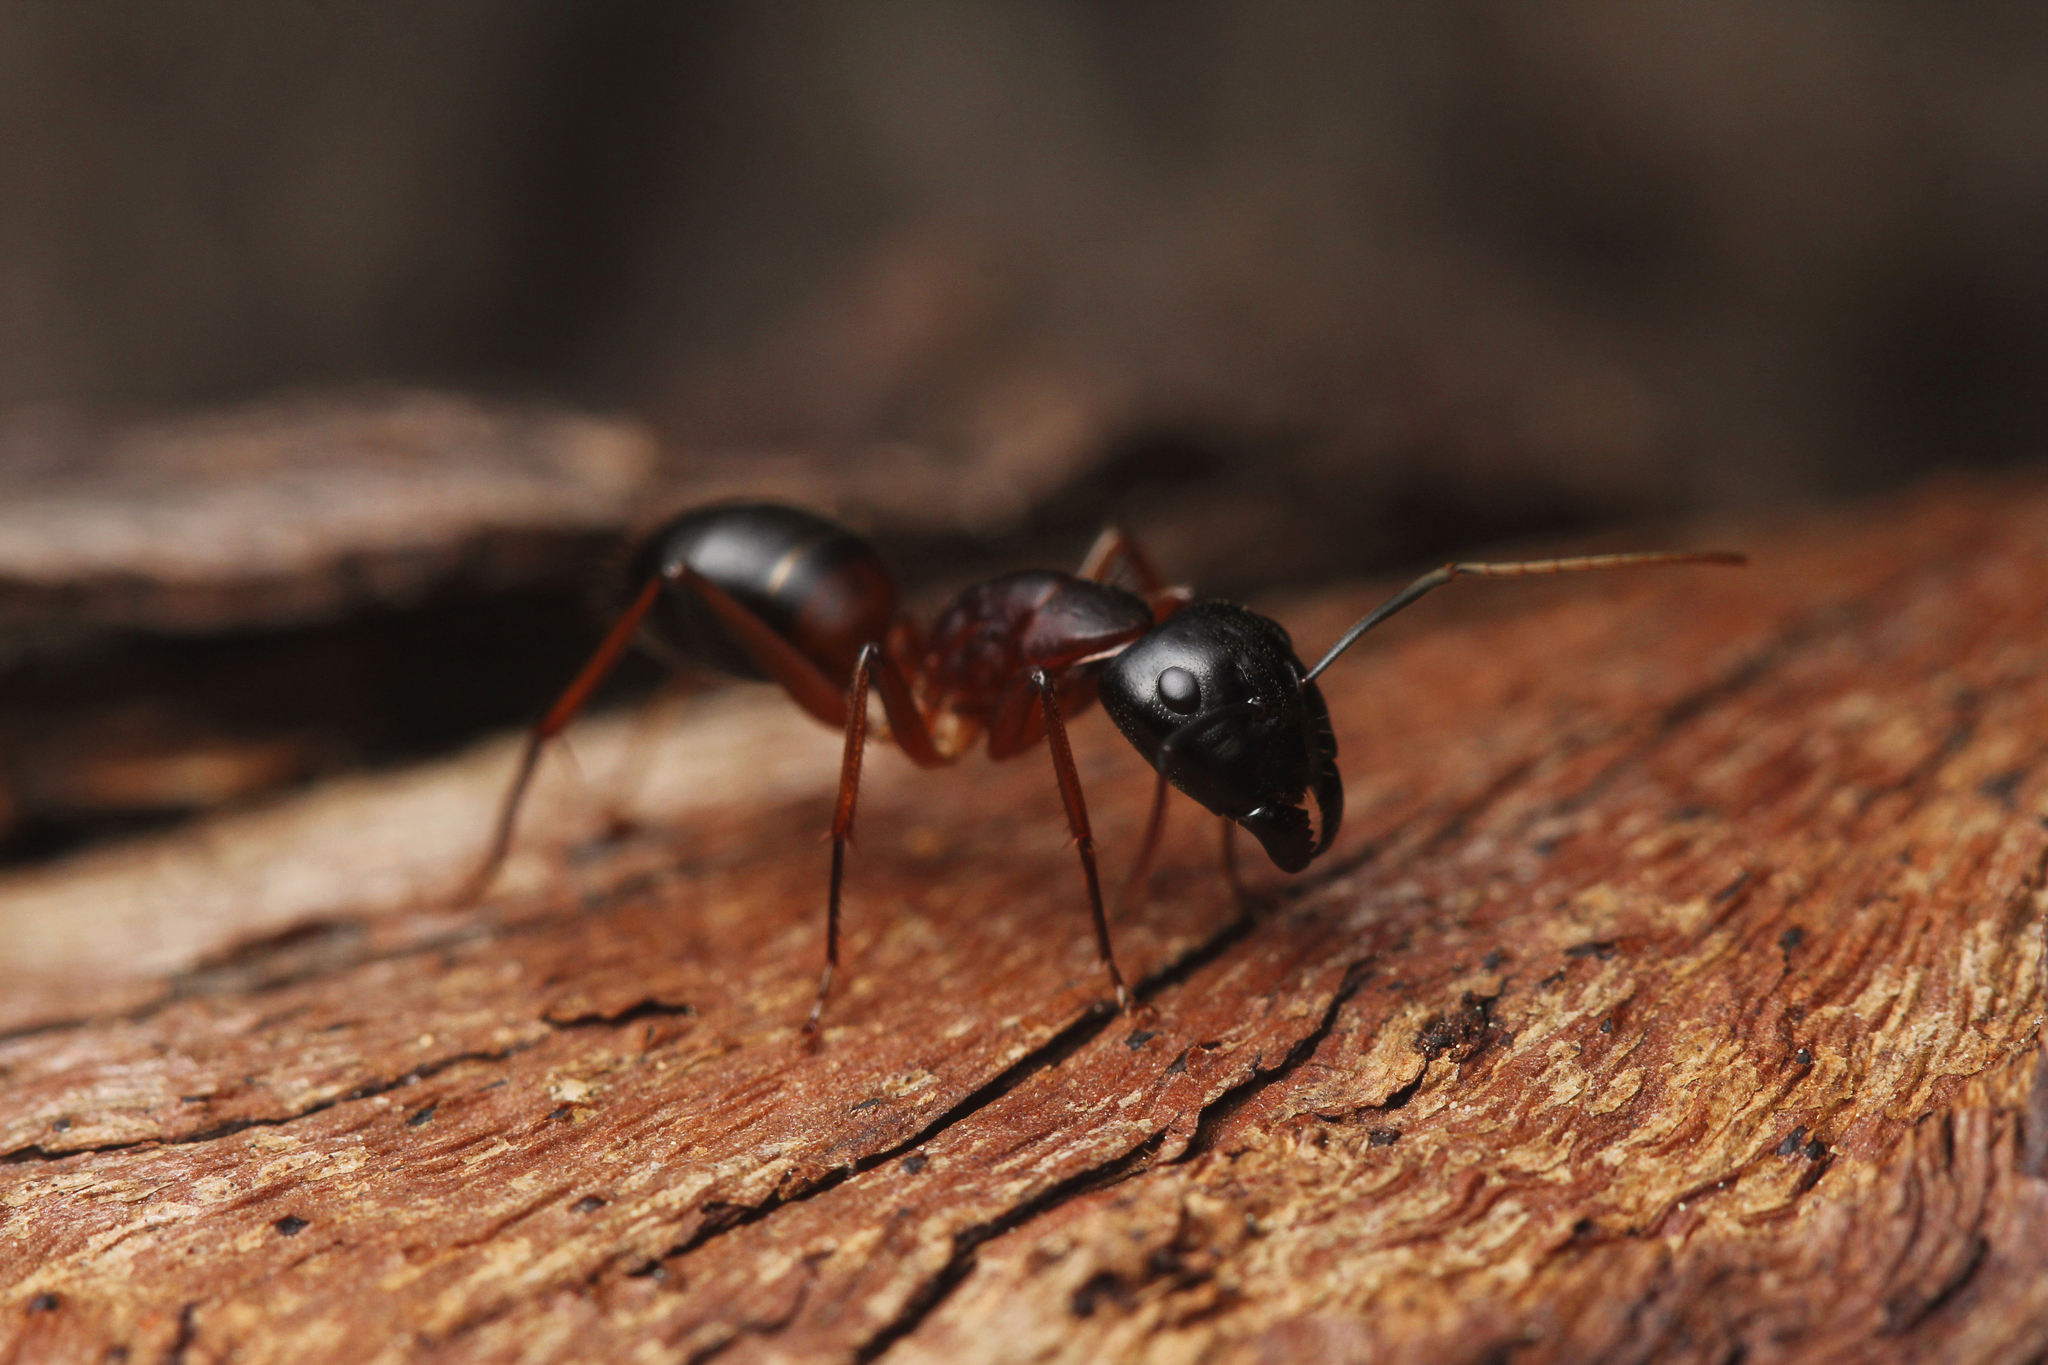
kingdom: Animalia
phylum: Arthropoda
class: Insecta
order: Hymenoptera
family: Formicidae
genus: Camponotus
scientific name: Camponotus consobrinus
